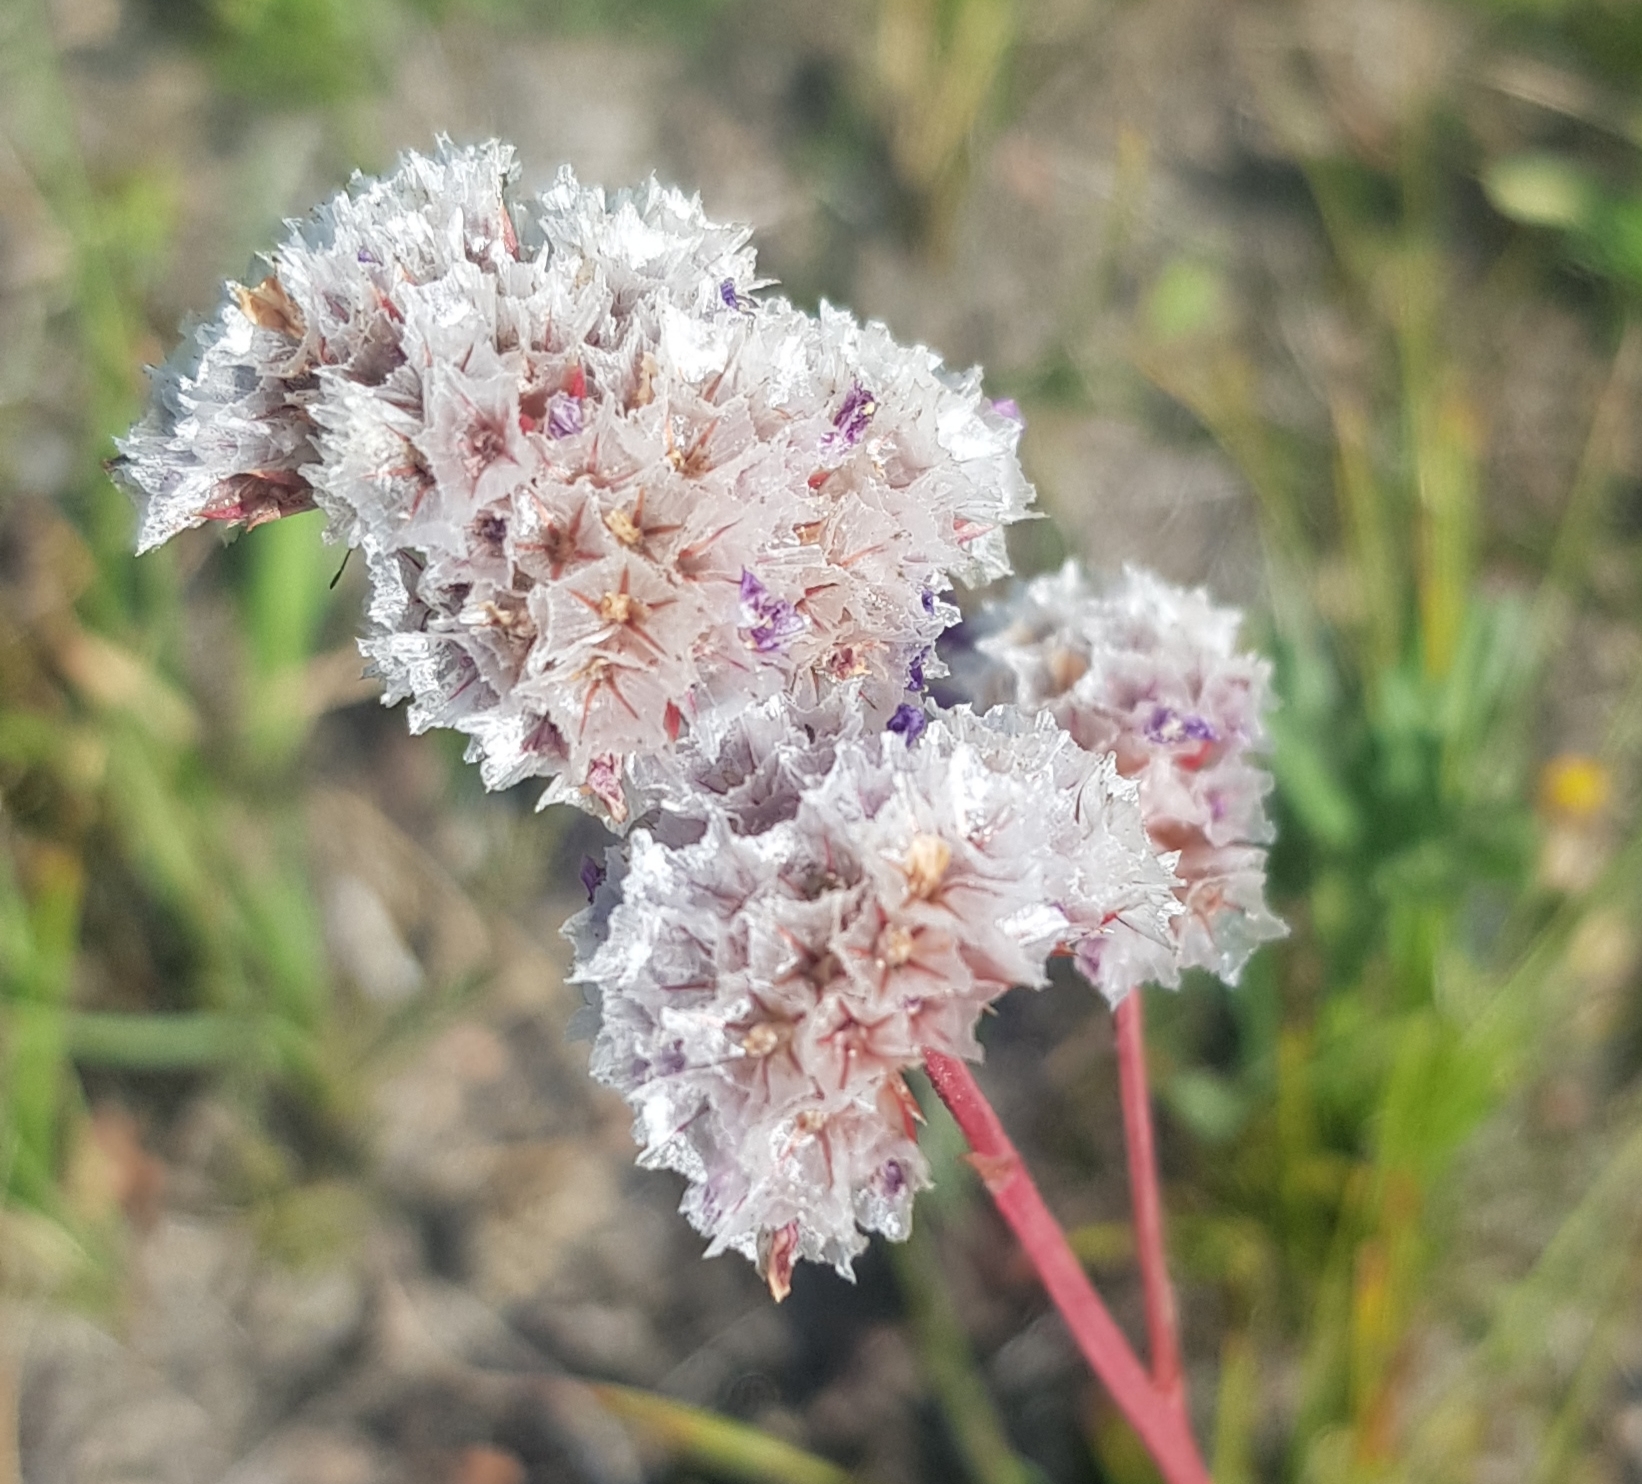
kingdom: Plantae
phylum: Tracheophyta
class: Magnoliopsida
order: Caryophyllales
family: Plumbaginaceae
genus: Goniolimon
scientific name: Goniolimon speciosum
